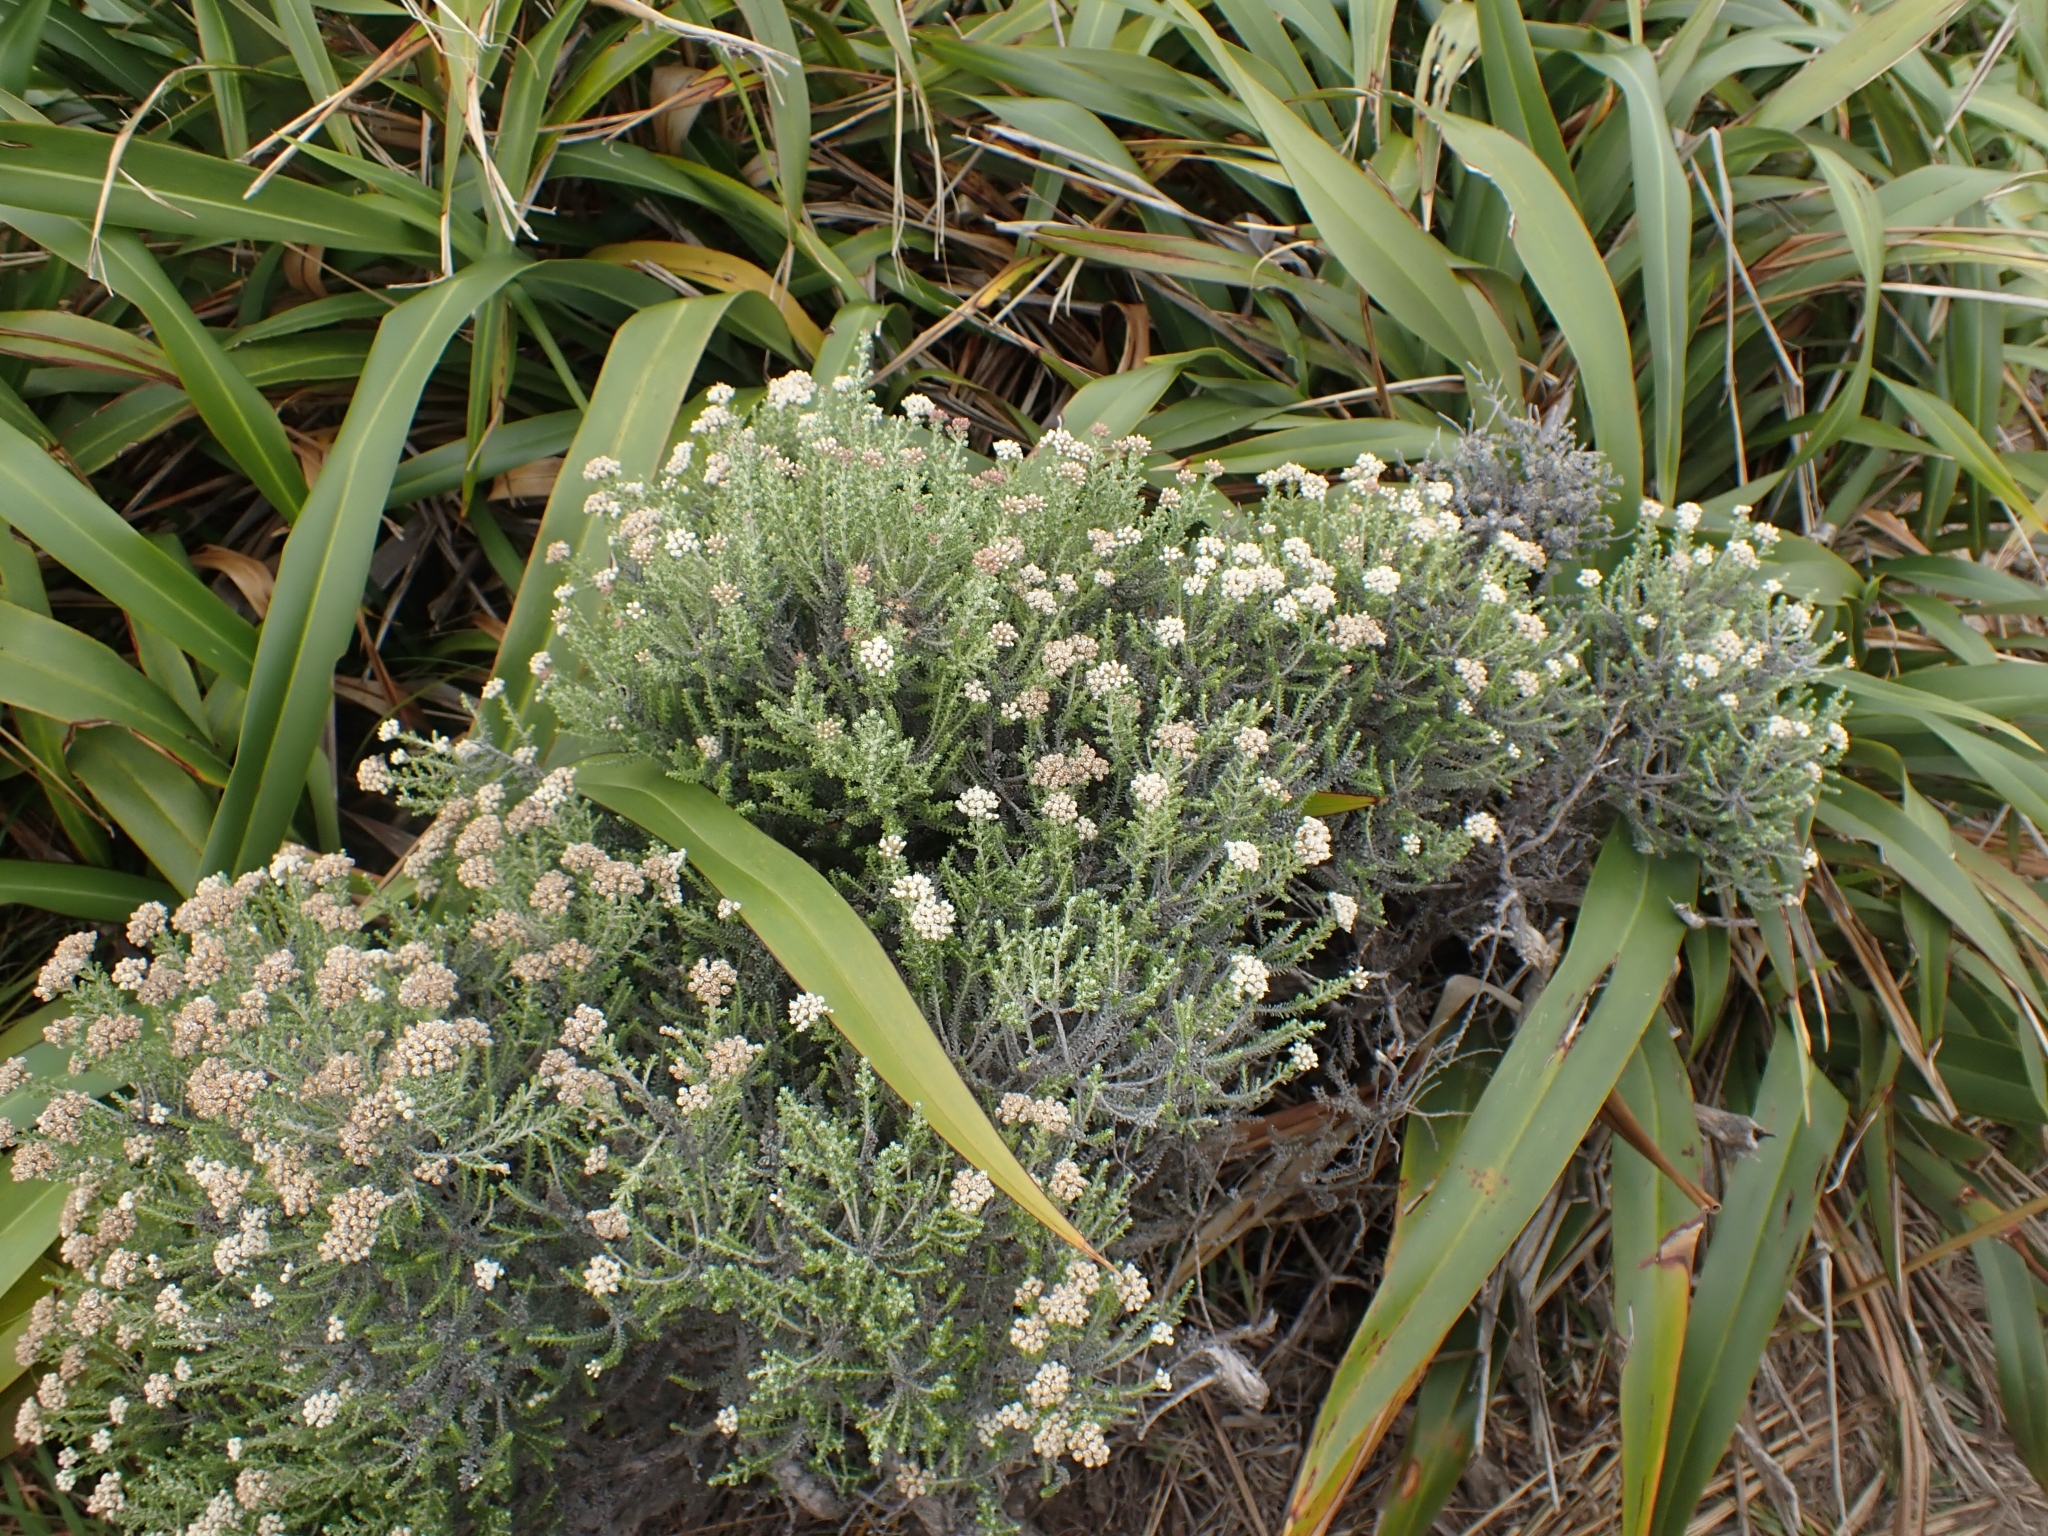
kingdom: Plantae
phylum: Tracheophyta
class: Magnoliopsida
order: Asterales
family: Asteraceae
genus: Ozothamnus
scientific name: Ozothamnus leptophyllus
